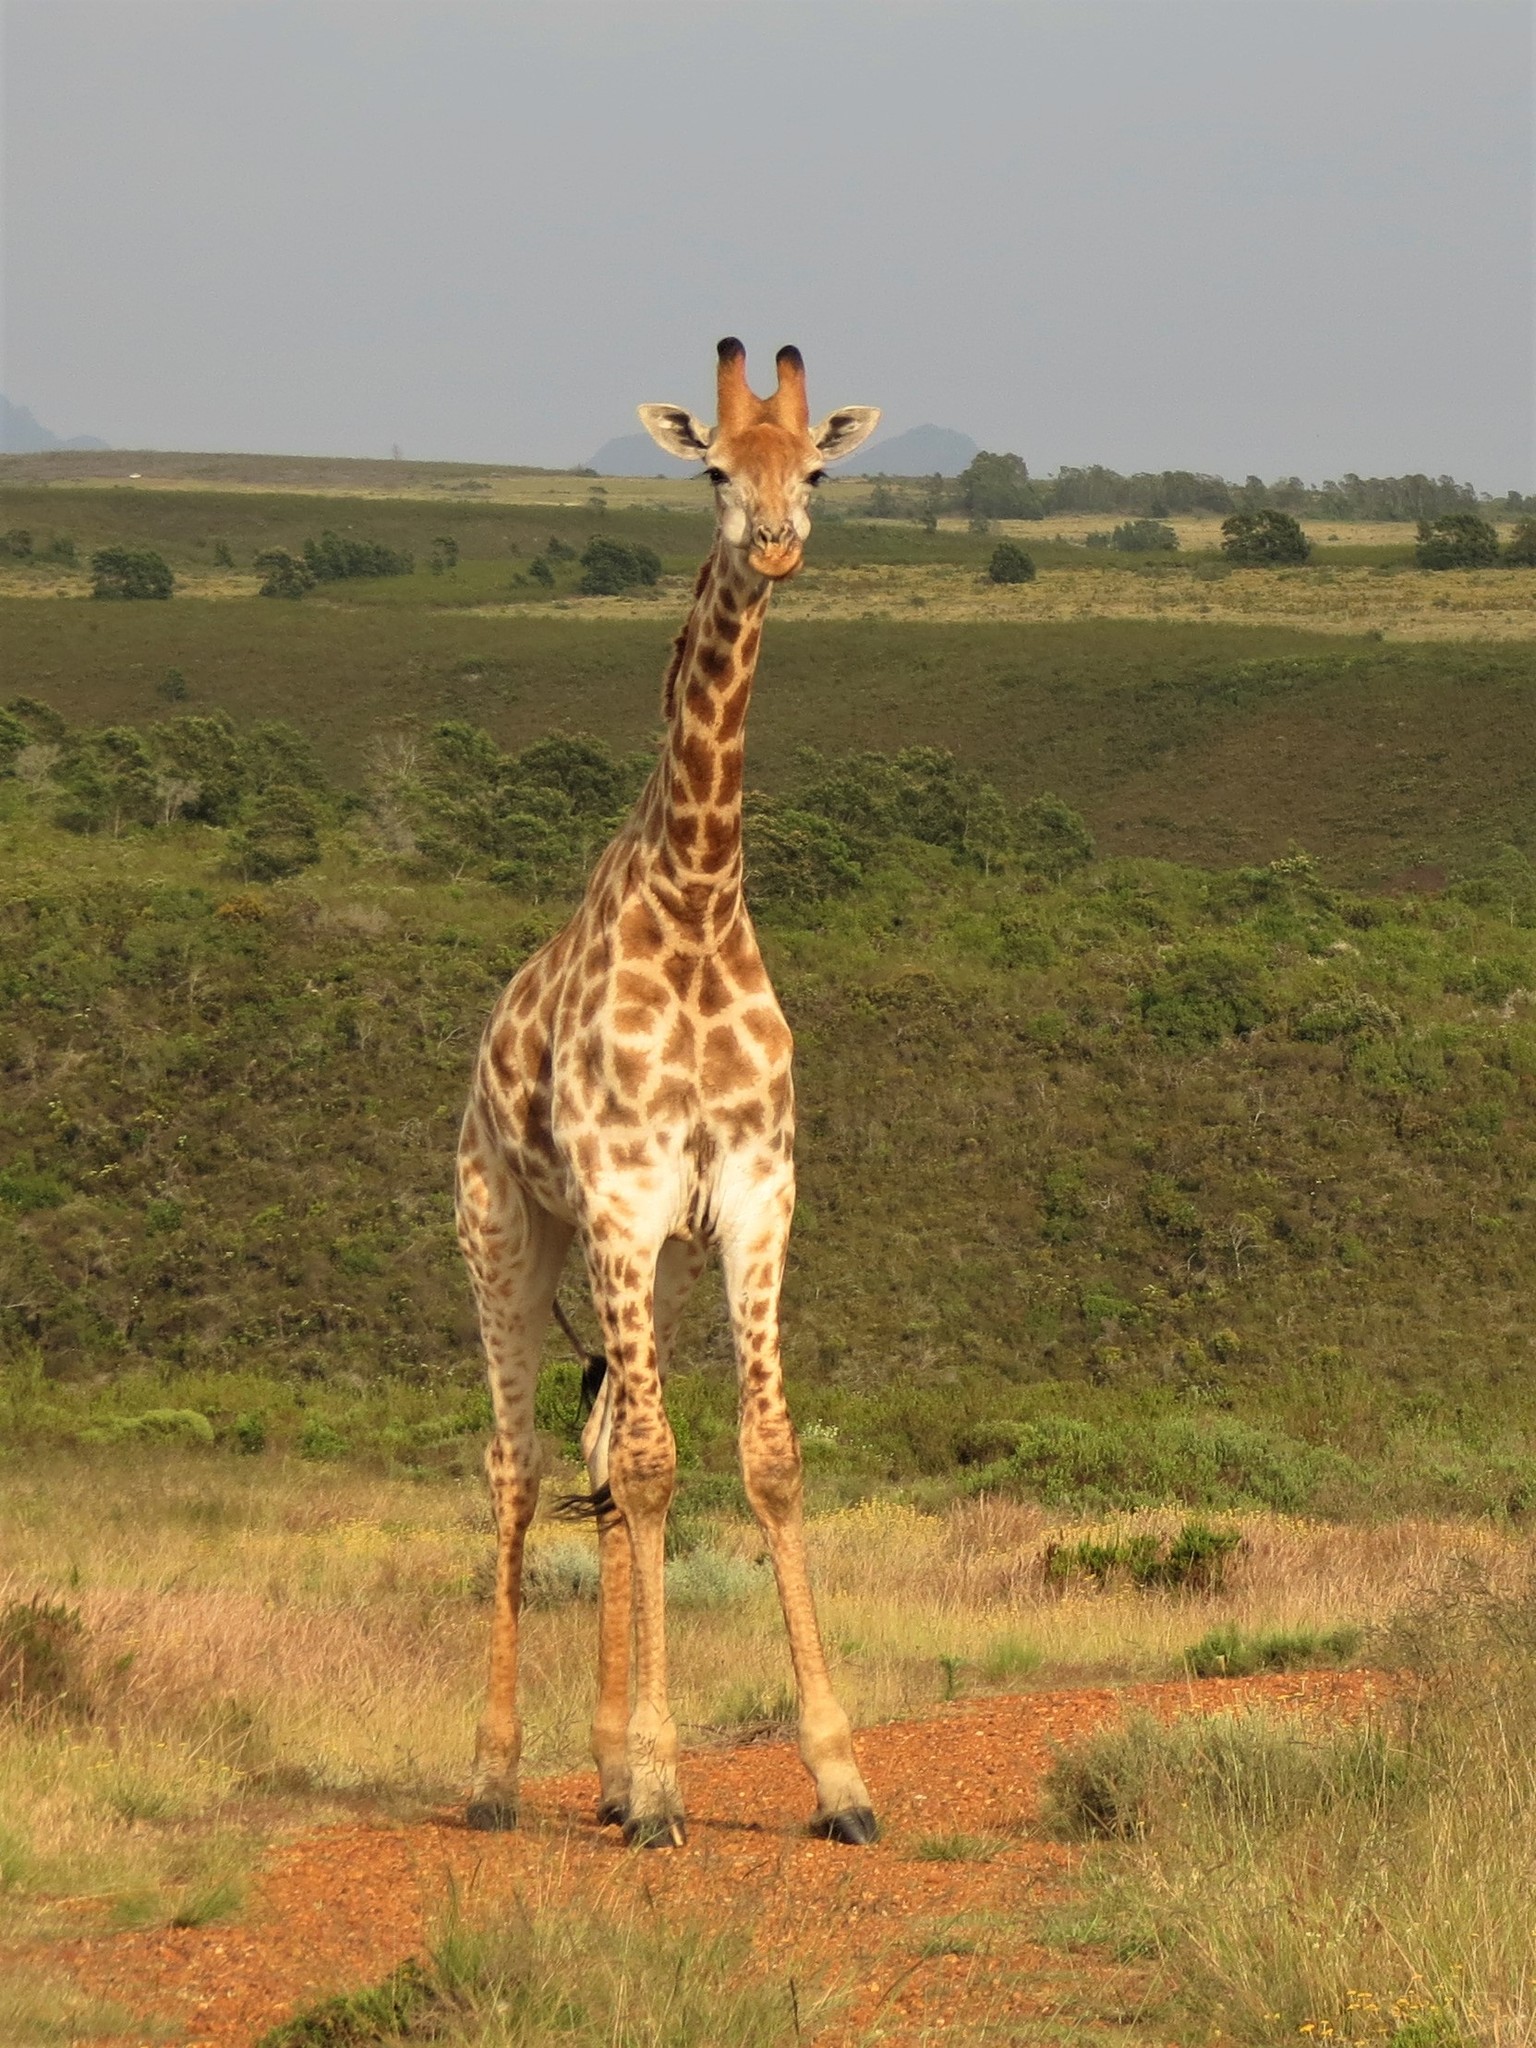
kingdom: Animalia
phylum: Chordata
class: Mammalia
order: Artiodactyla
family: Giraffidae
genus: Giraffa
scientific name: Giraffa giraffa
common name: Southern giraffe
